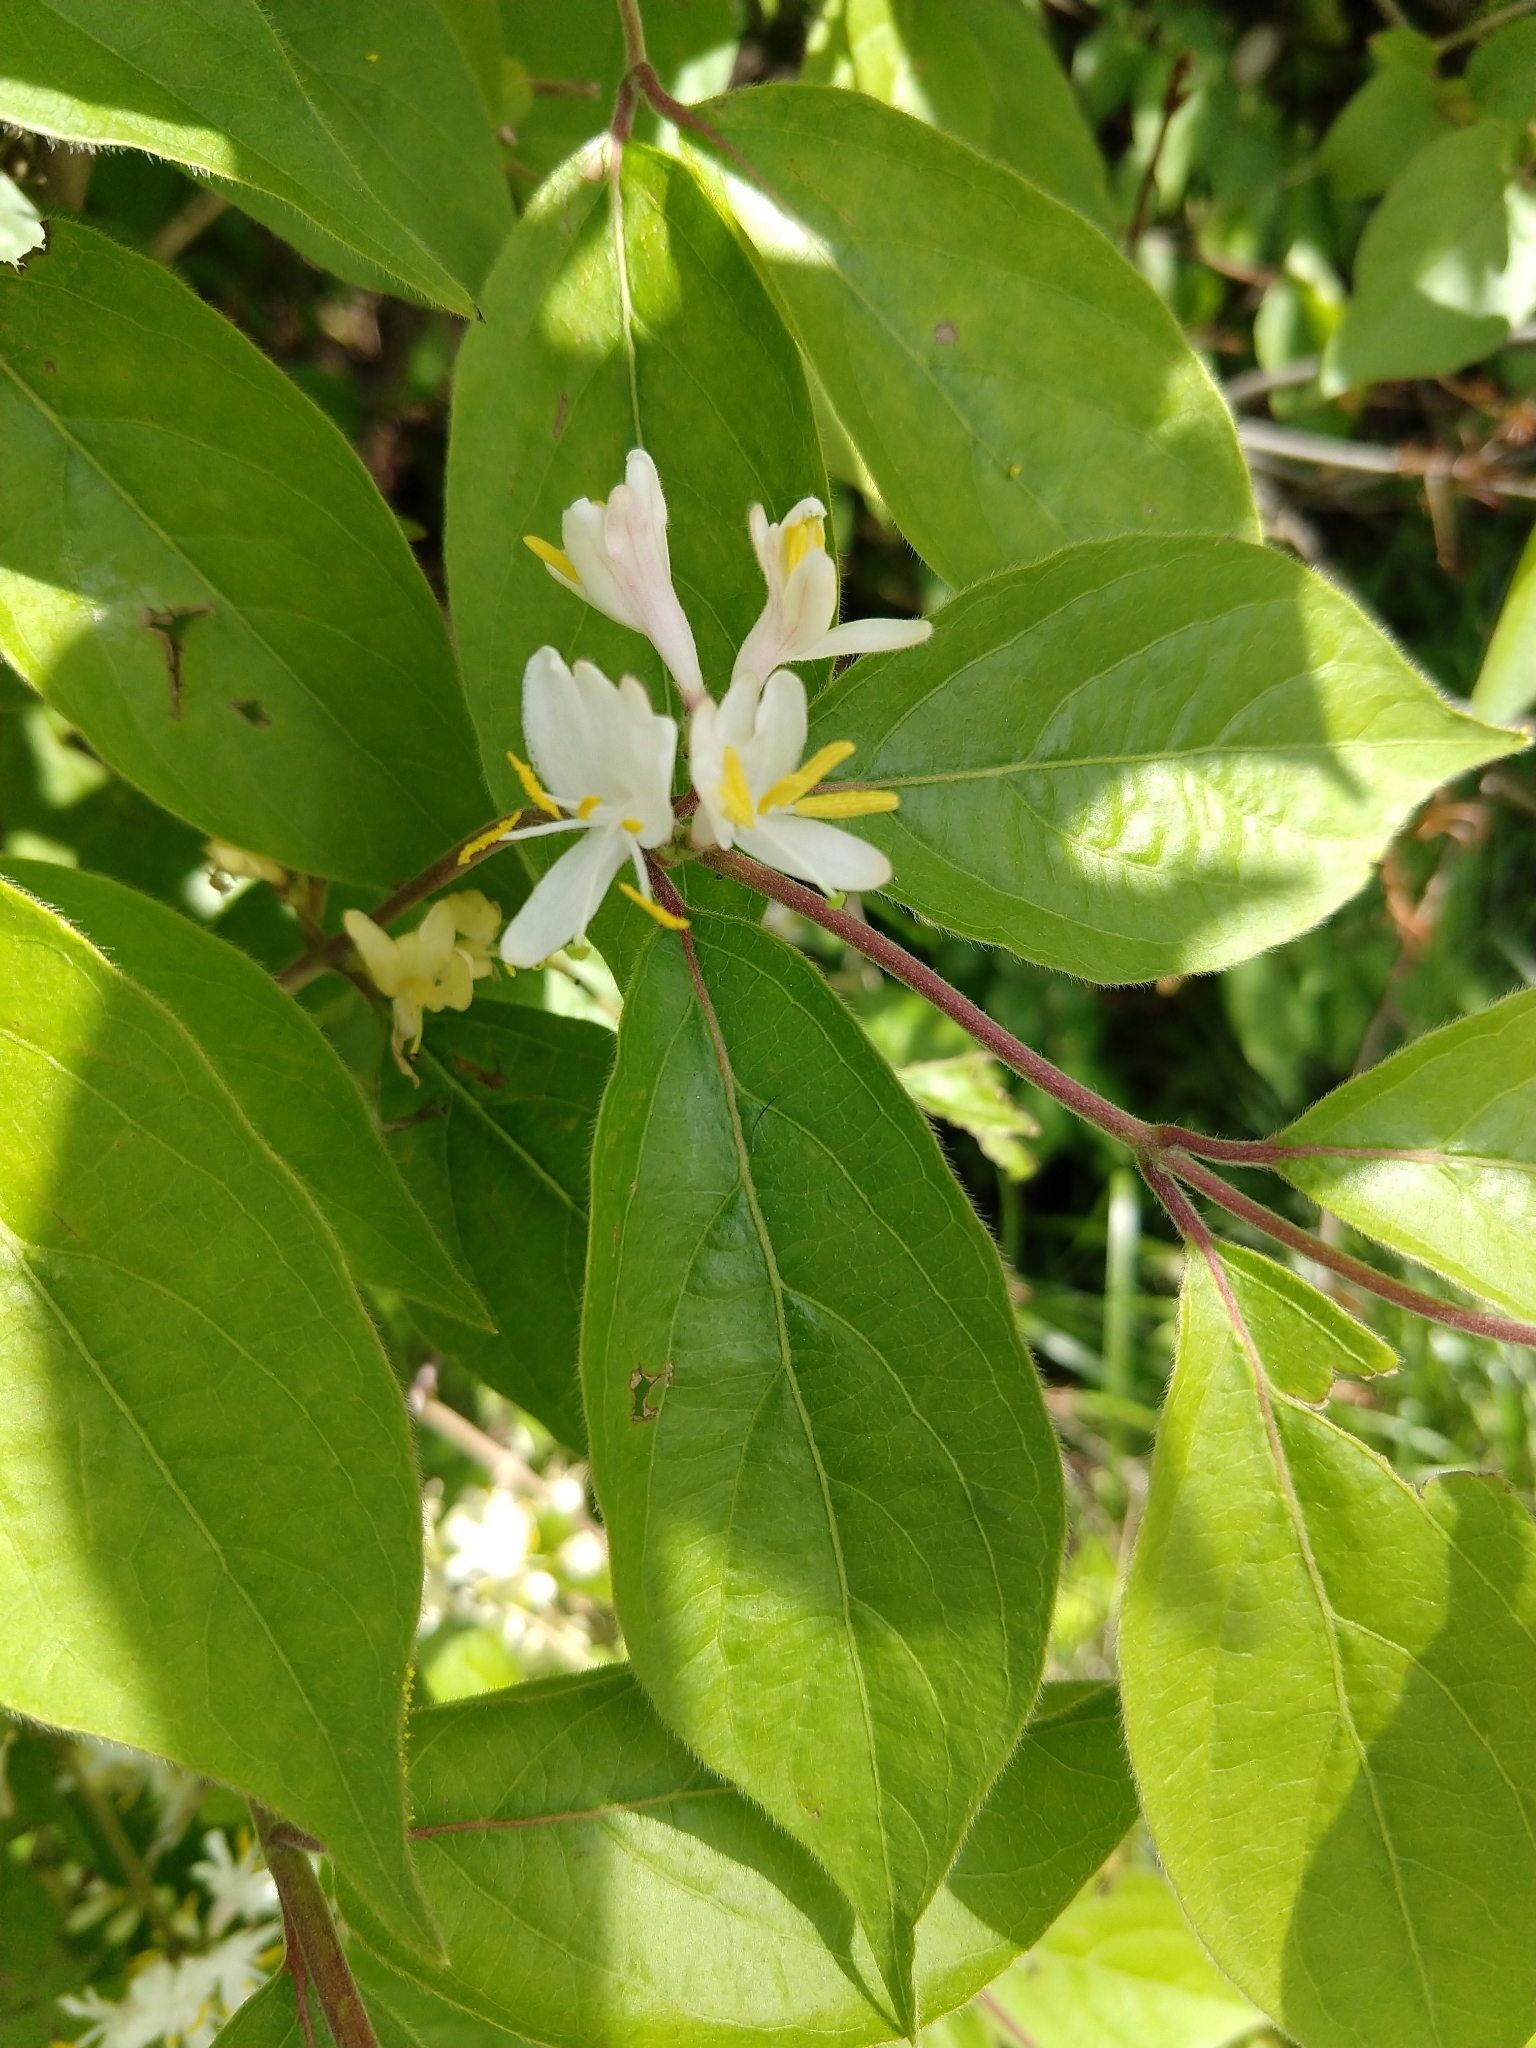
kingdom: Plantae
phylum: Tracheophyta
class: Magnoliopsida
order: Dipsacales
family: Caprifoliaceae
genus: Lonicera
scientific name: Lonicera maackii
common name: Amur honeysuckle
